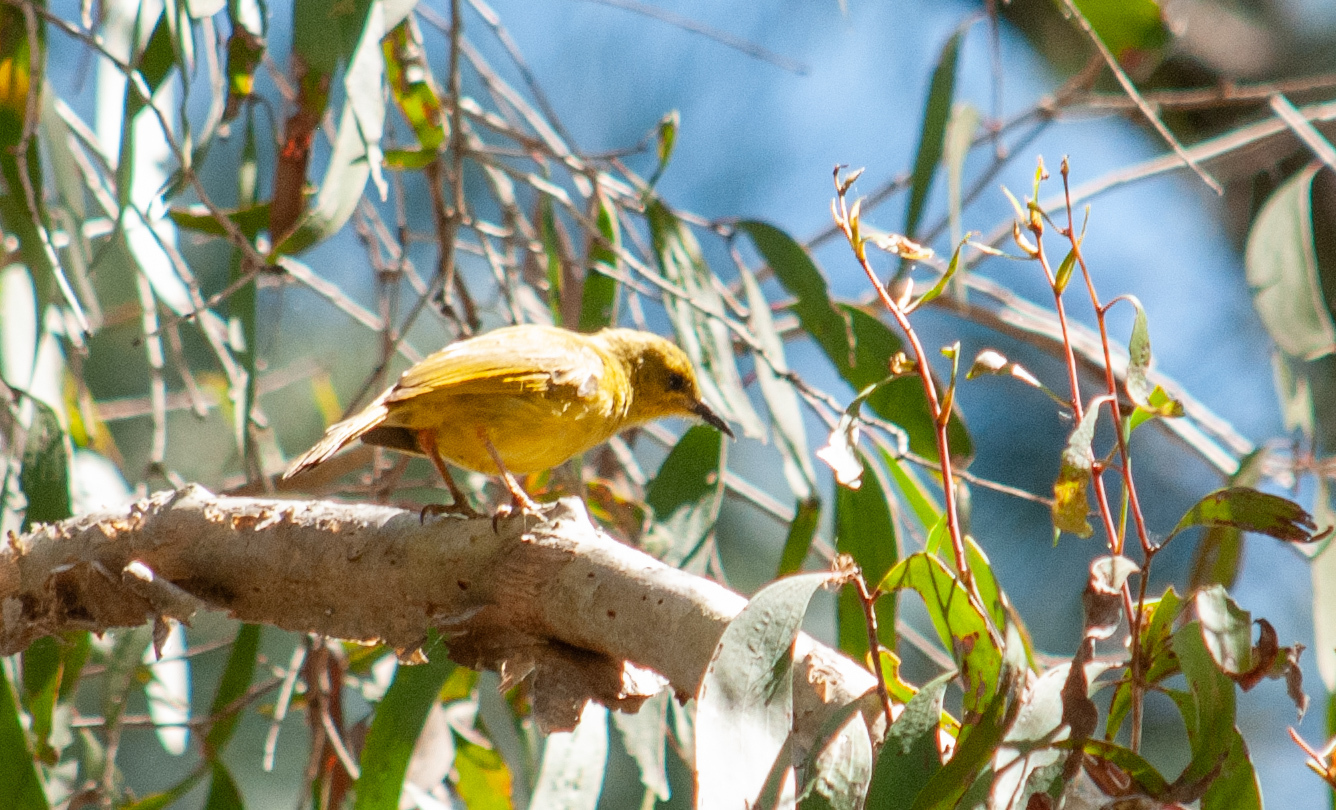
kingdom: Animalia
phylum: Chordata
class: Aves
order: Passeriformes
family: Meliphagidae
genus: Stomiopera
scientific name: Stomiopera flava
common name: Yellow honeyeater
